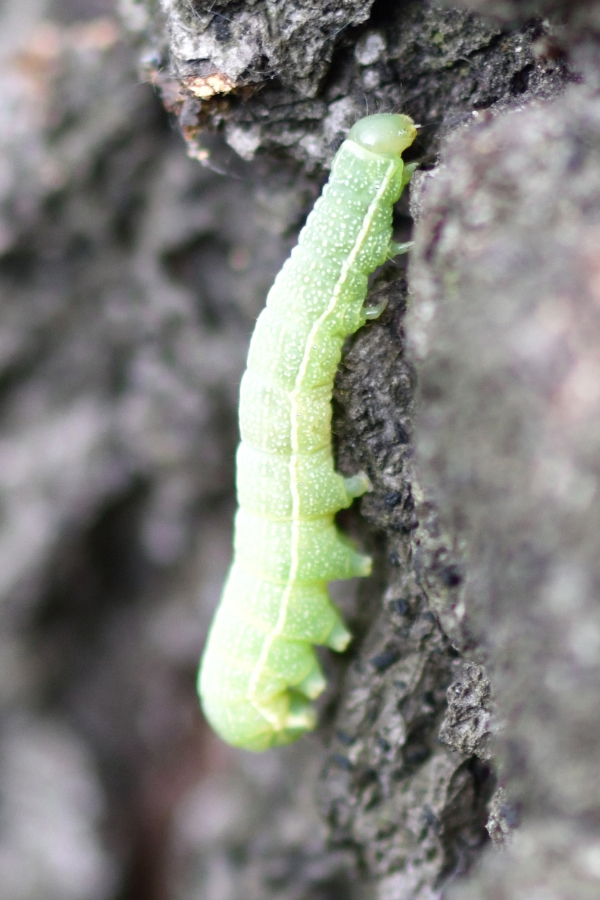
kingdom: Animalia
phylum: Arthropoda
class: Insecta
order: Lepidoptera
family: Noctuidae
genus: Orthosia
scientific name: Orthosia incerta
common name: Clouded drab
